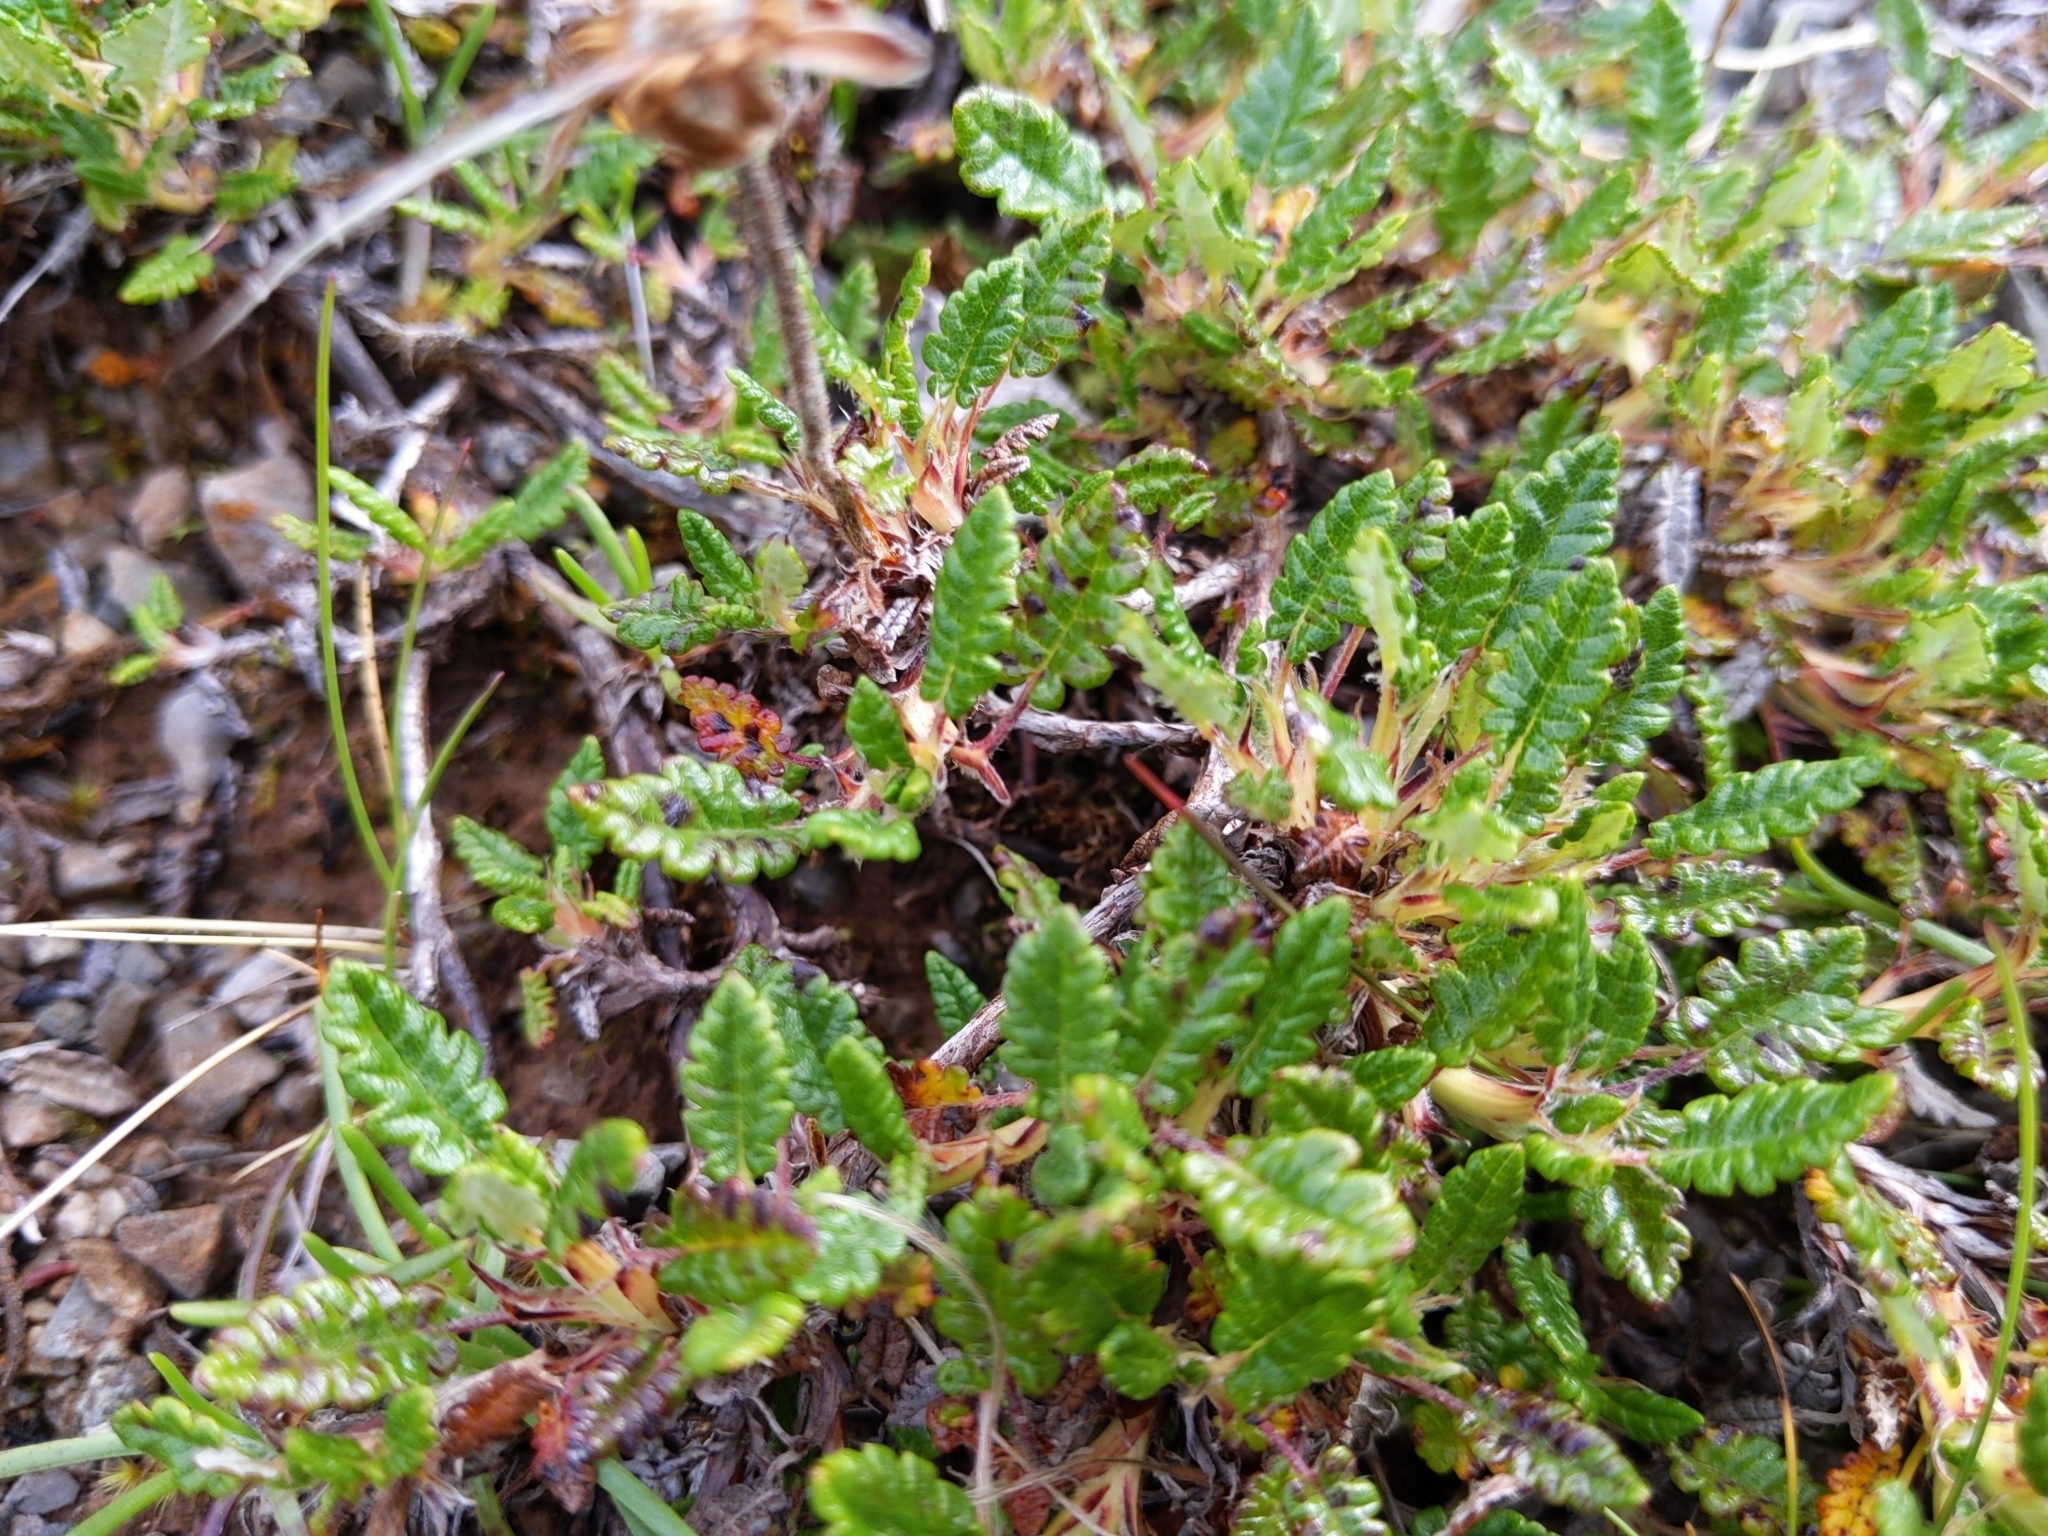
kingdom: Plantae
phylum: Tracheophyta
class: Magnoliopsida
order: Rosales
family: Rosaceae
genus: Dryas
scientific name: Dryas octopetala
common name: Eight-petal mountain-avens
